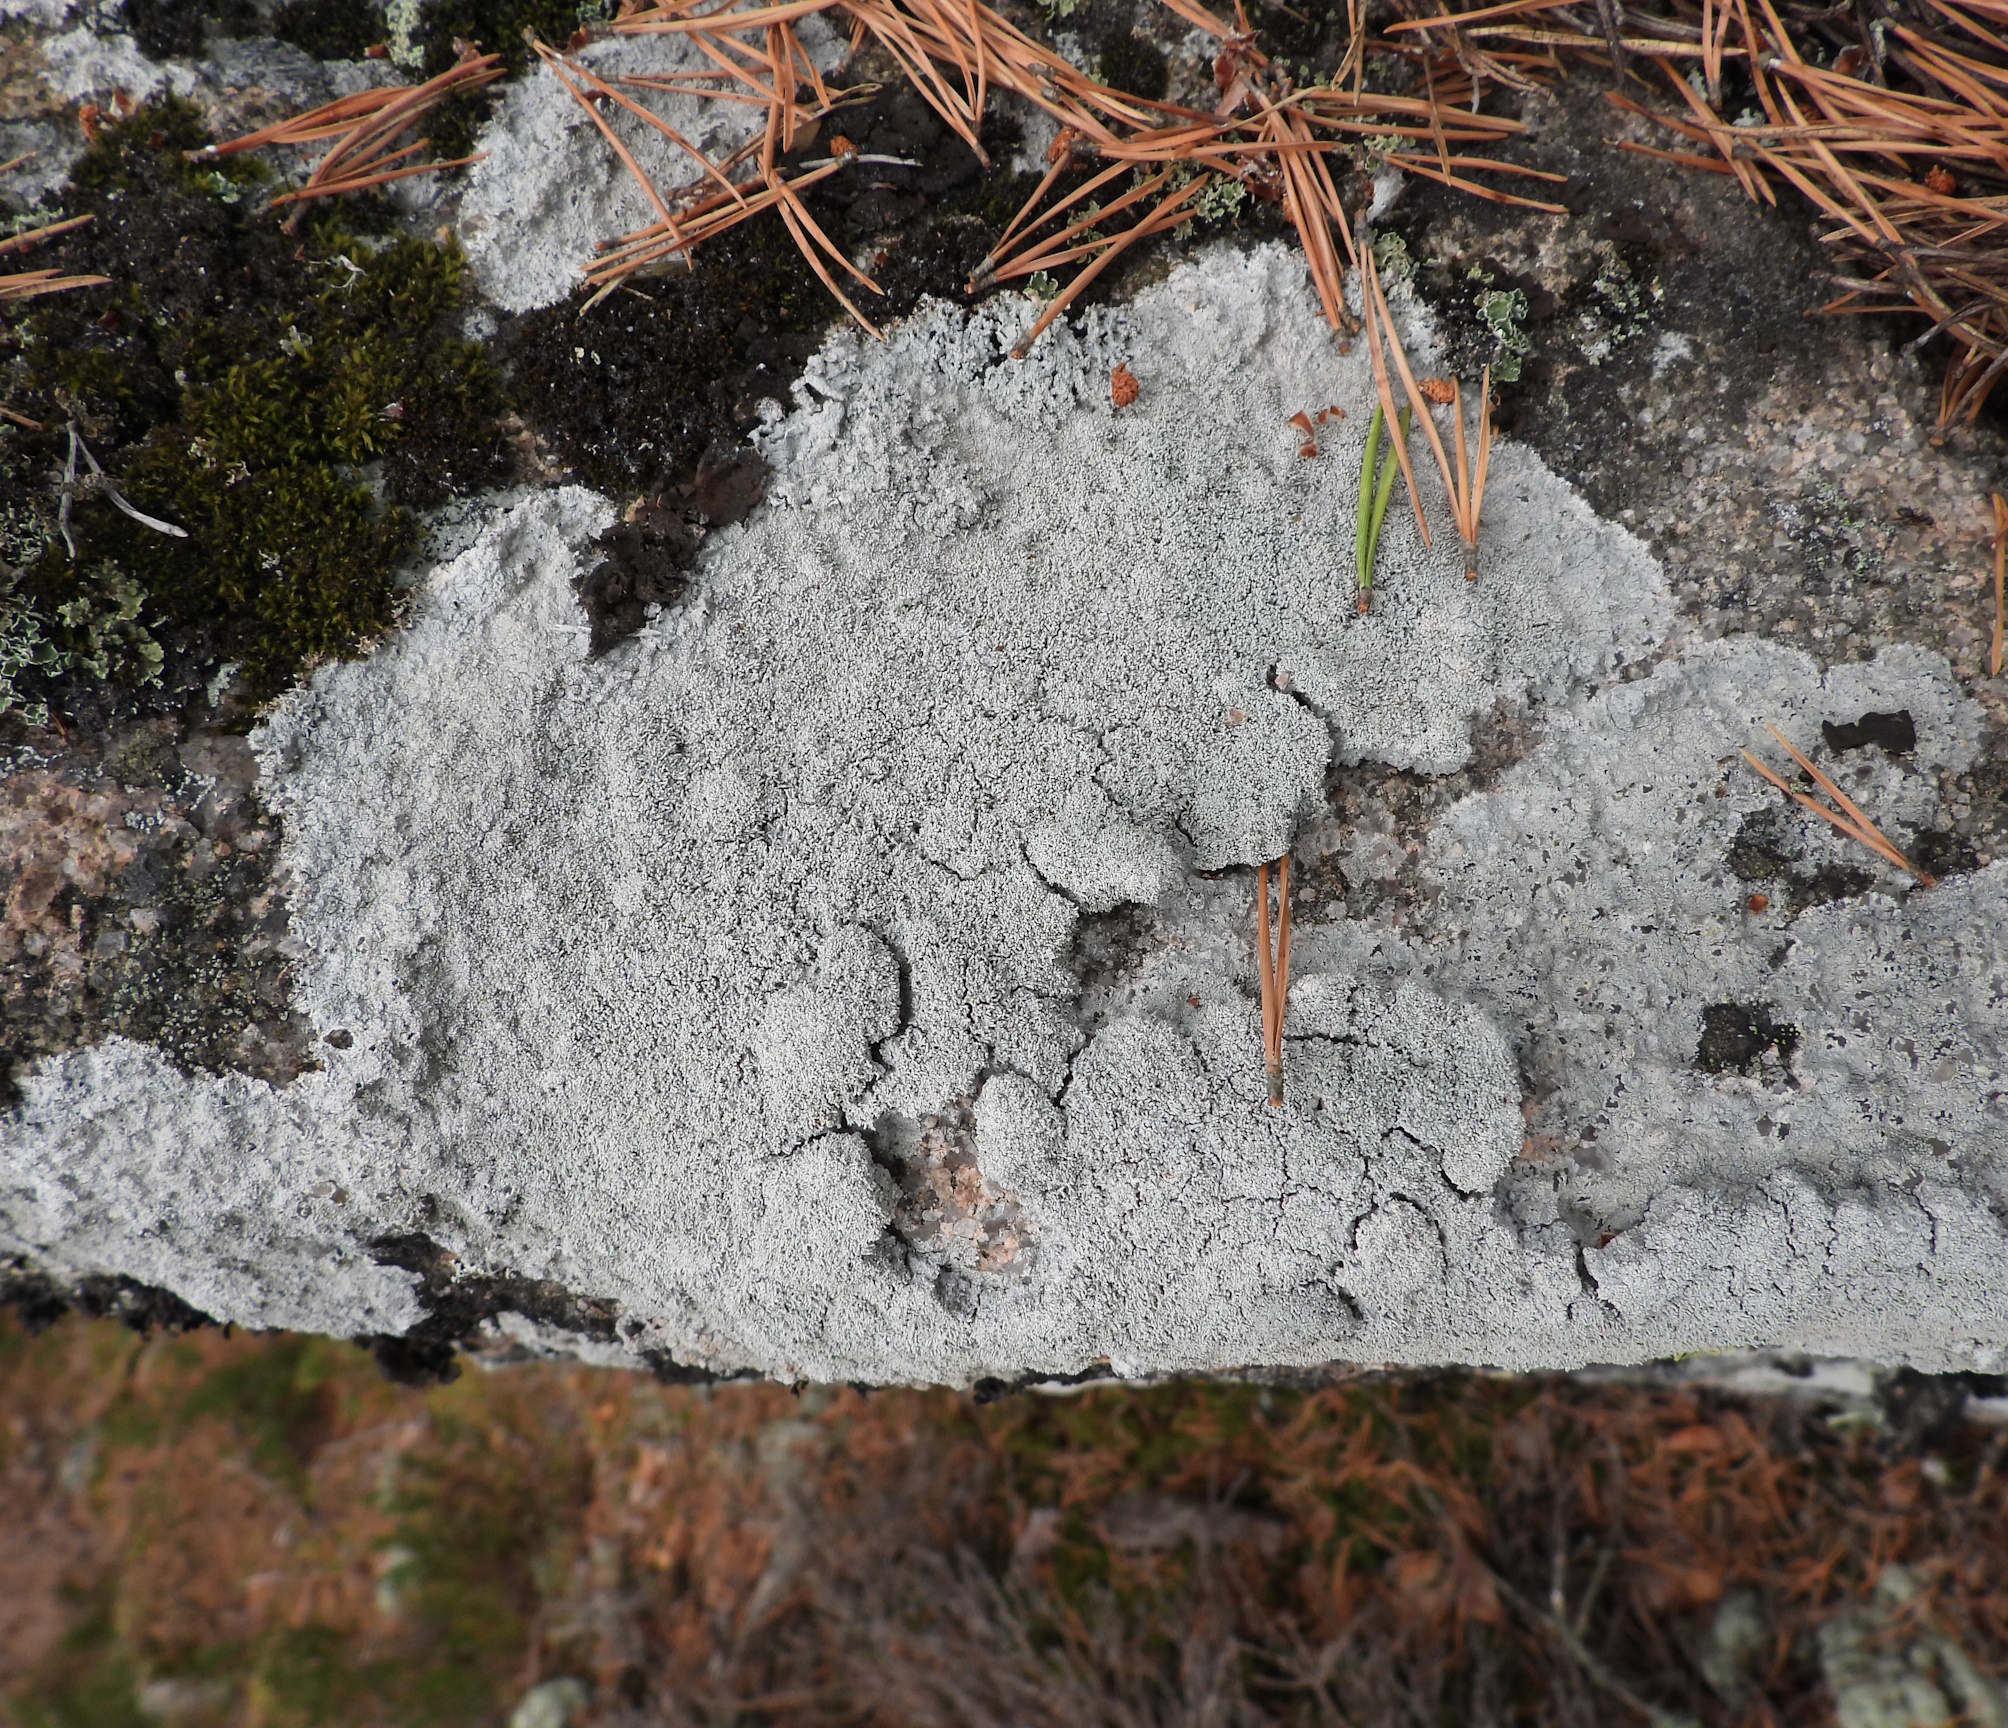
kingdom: Fungi
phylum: Ascomycota
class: Lecanoromycetes
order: Pertusariales
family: Pertusariaceae
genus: Lepra
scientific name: Lepra corallina
